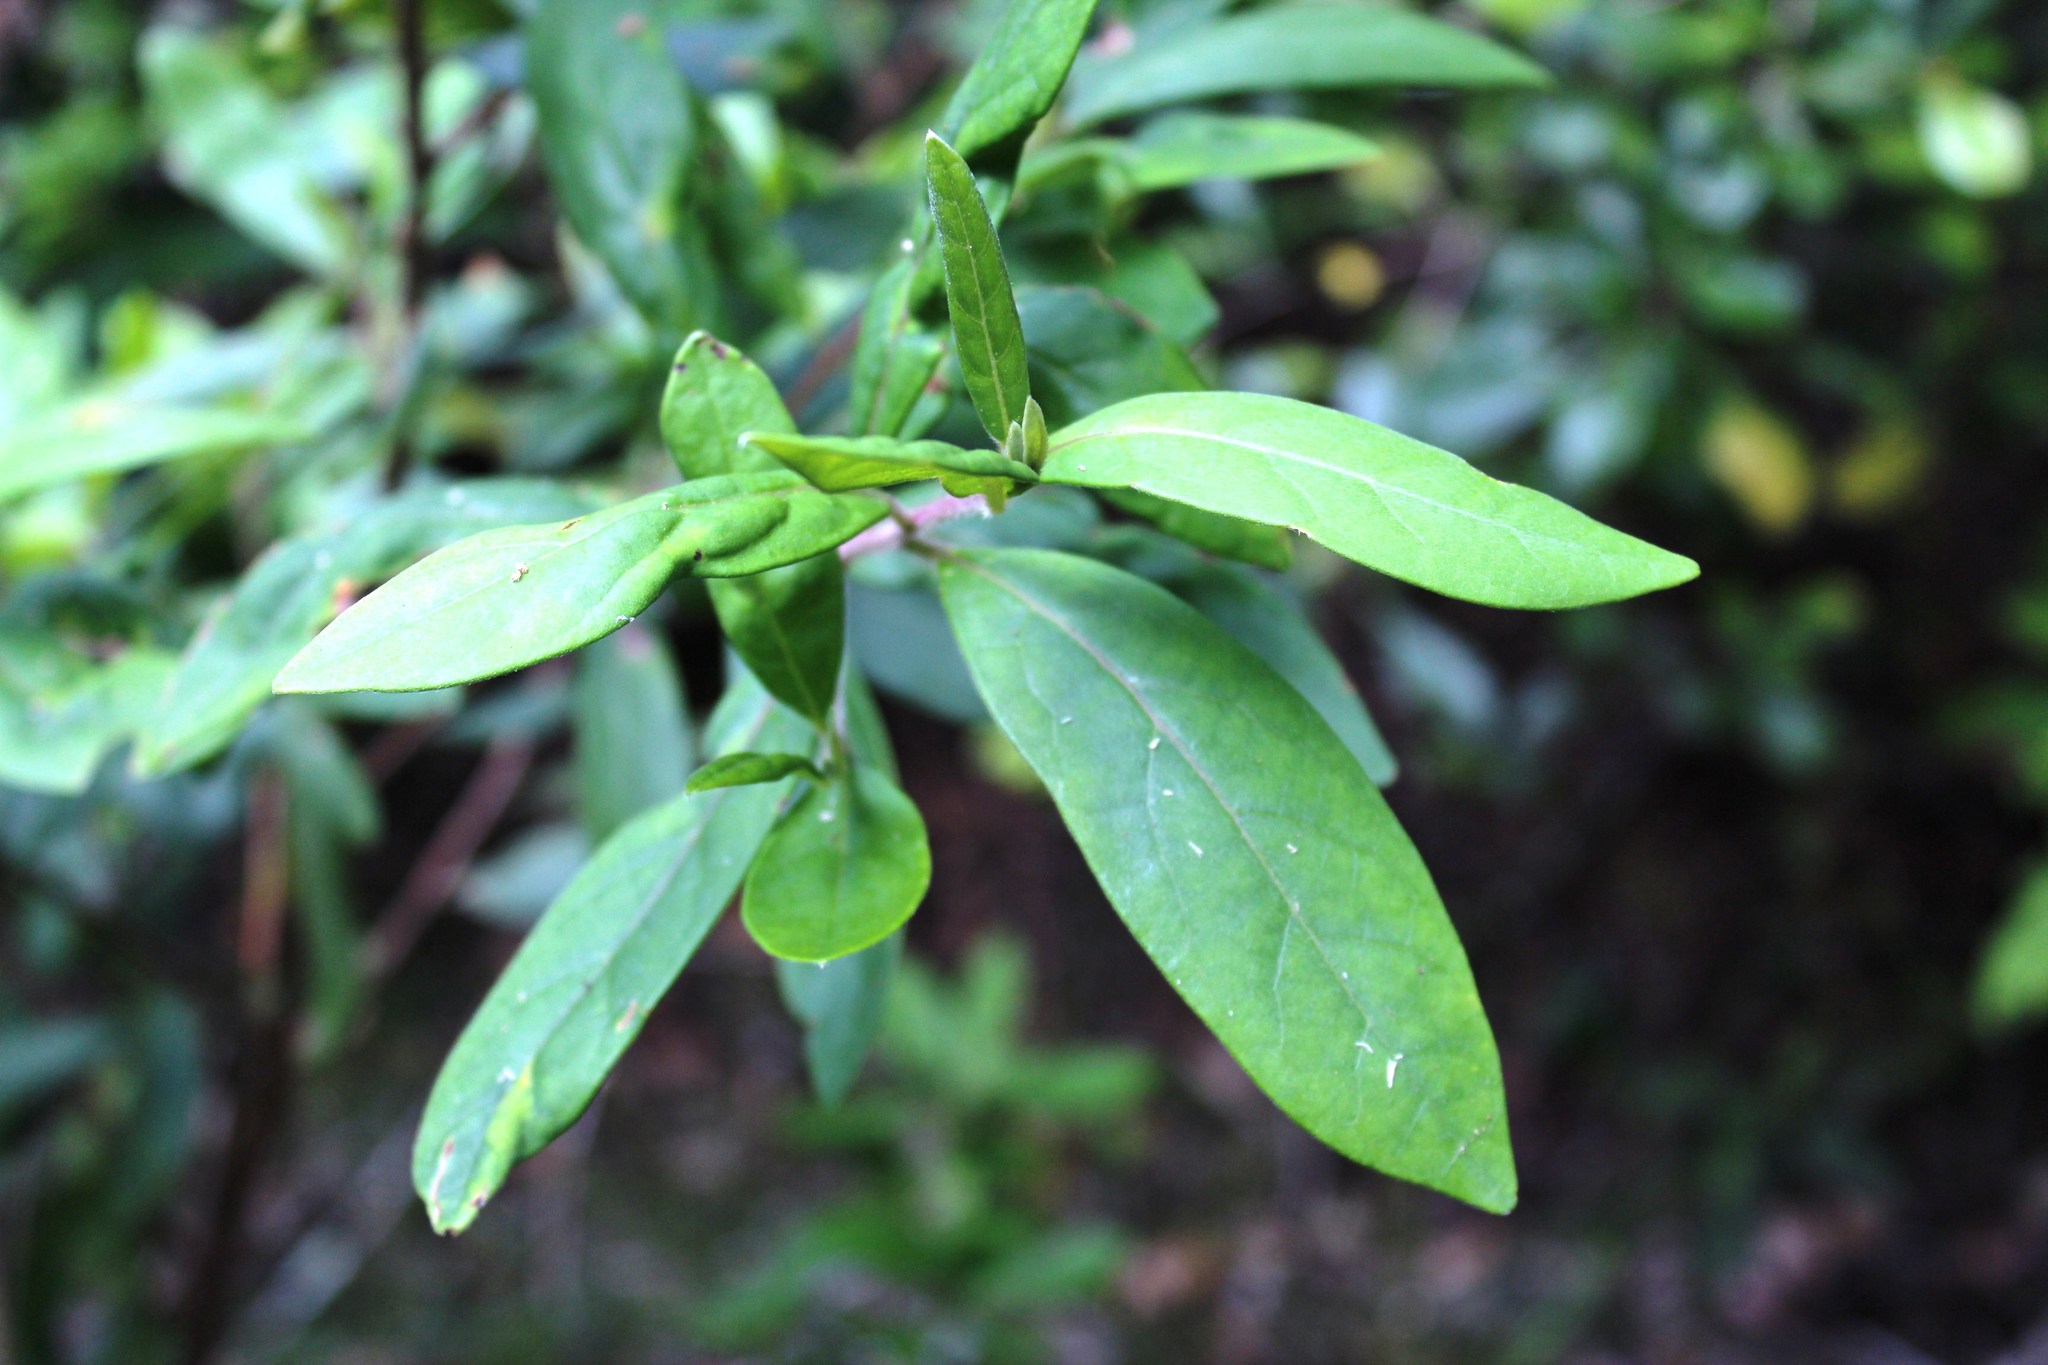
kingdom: Plantae
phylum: Tracheophyta
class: Magnoliopsida
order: Ericales
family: Ebenaceae
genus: Diospyros
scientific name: Diospyros dichrophylla
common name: Common star-apple
